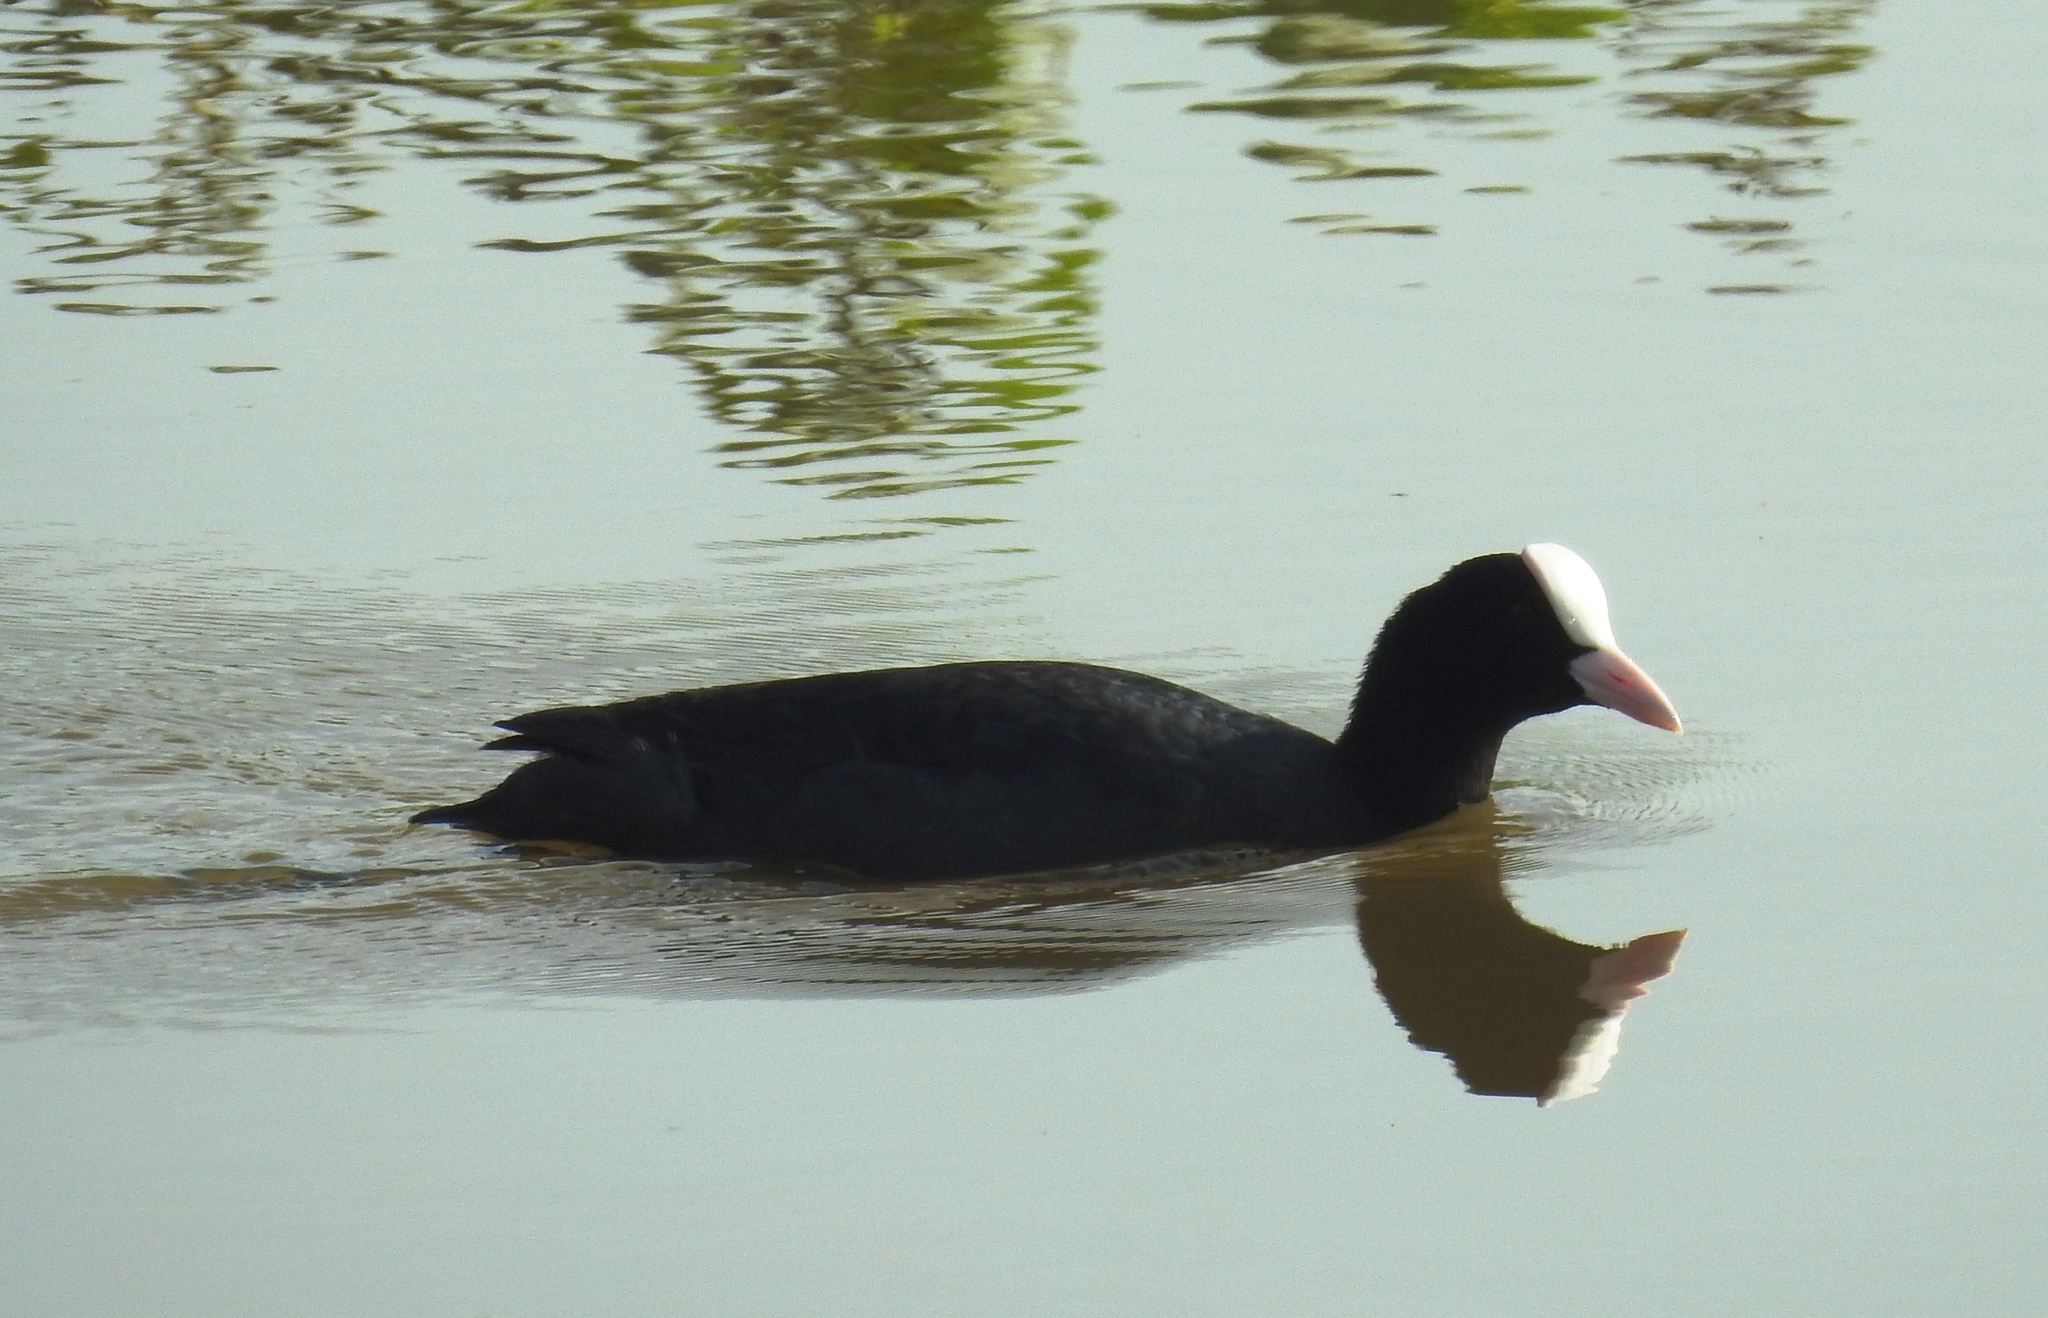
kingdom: Animalia
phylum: Chordata
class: Aves
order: Gruiformes
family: Rallidae
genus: Fulica
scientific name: Fulica atra
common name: Eurasian coot
